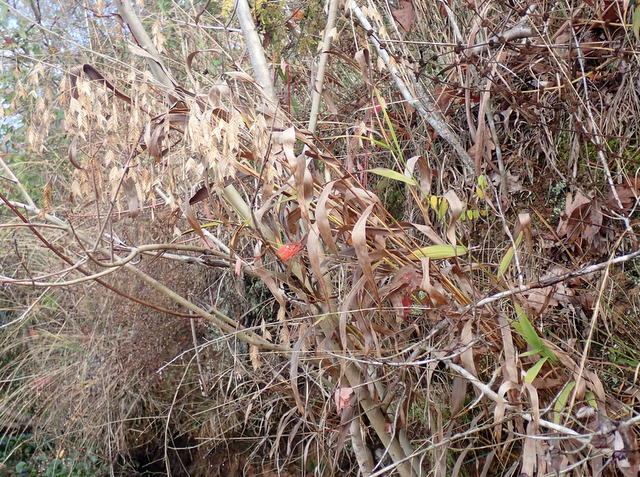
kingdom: Plantae
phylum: Tracheophyta
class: Liliopsida
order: Poales
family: Poaceae
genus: Chasmanthium
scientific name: Chasmanthium latifolium
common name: Broad-leaved chasmanthium
